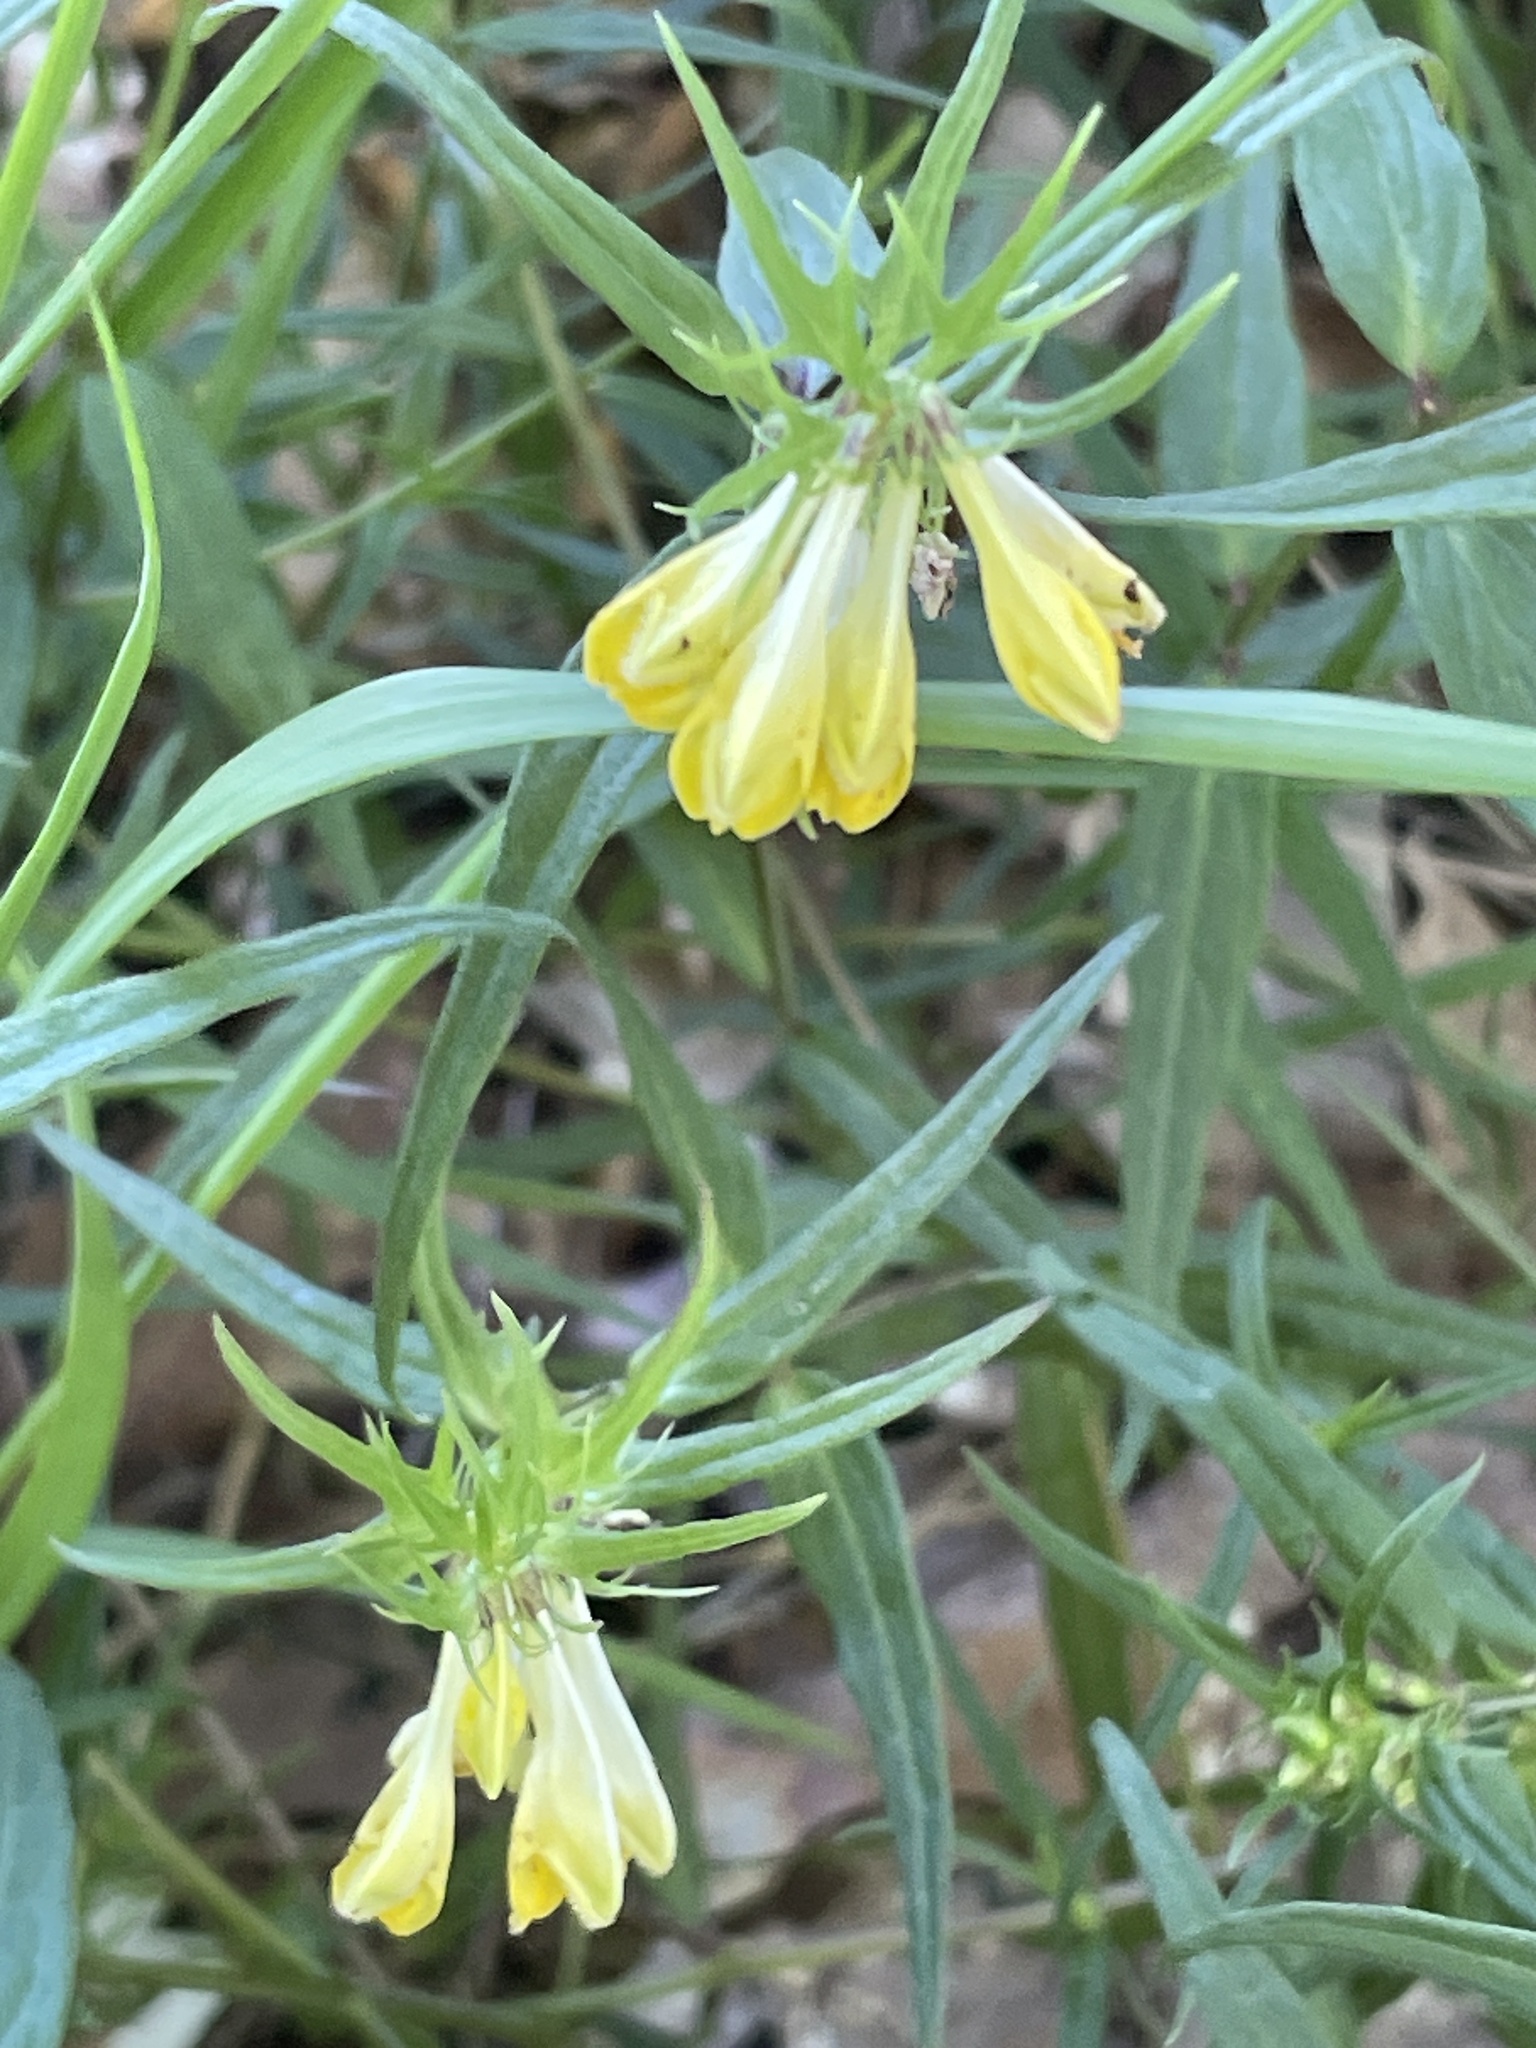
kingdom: Plantae
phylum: Tracheophyta
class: Magnoliopsida
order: Lamiales
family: Orobanchaceae
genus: Melampyrum
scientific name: Melampyrum pratense
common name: Common cow-wheat
